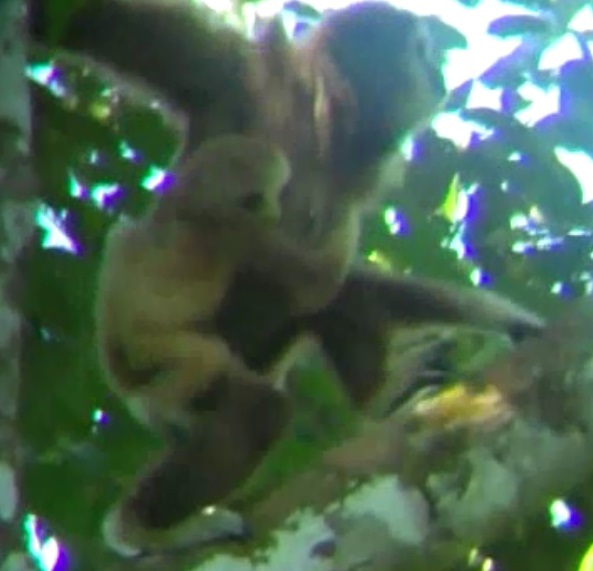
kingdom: Animalia
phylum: Chordata
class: Mammalia
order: Primates
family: Hylobatidae
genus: Hylobates
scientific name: Hylobates lar
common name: Lar gibbon
